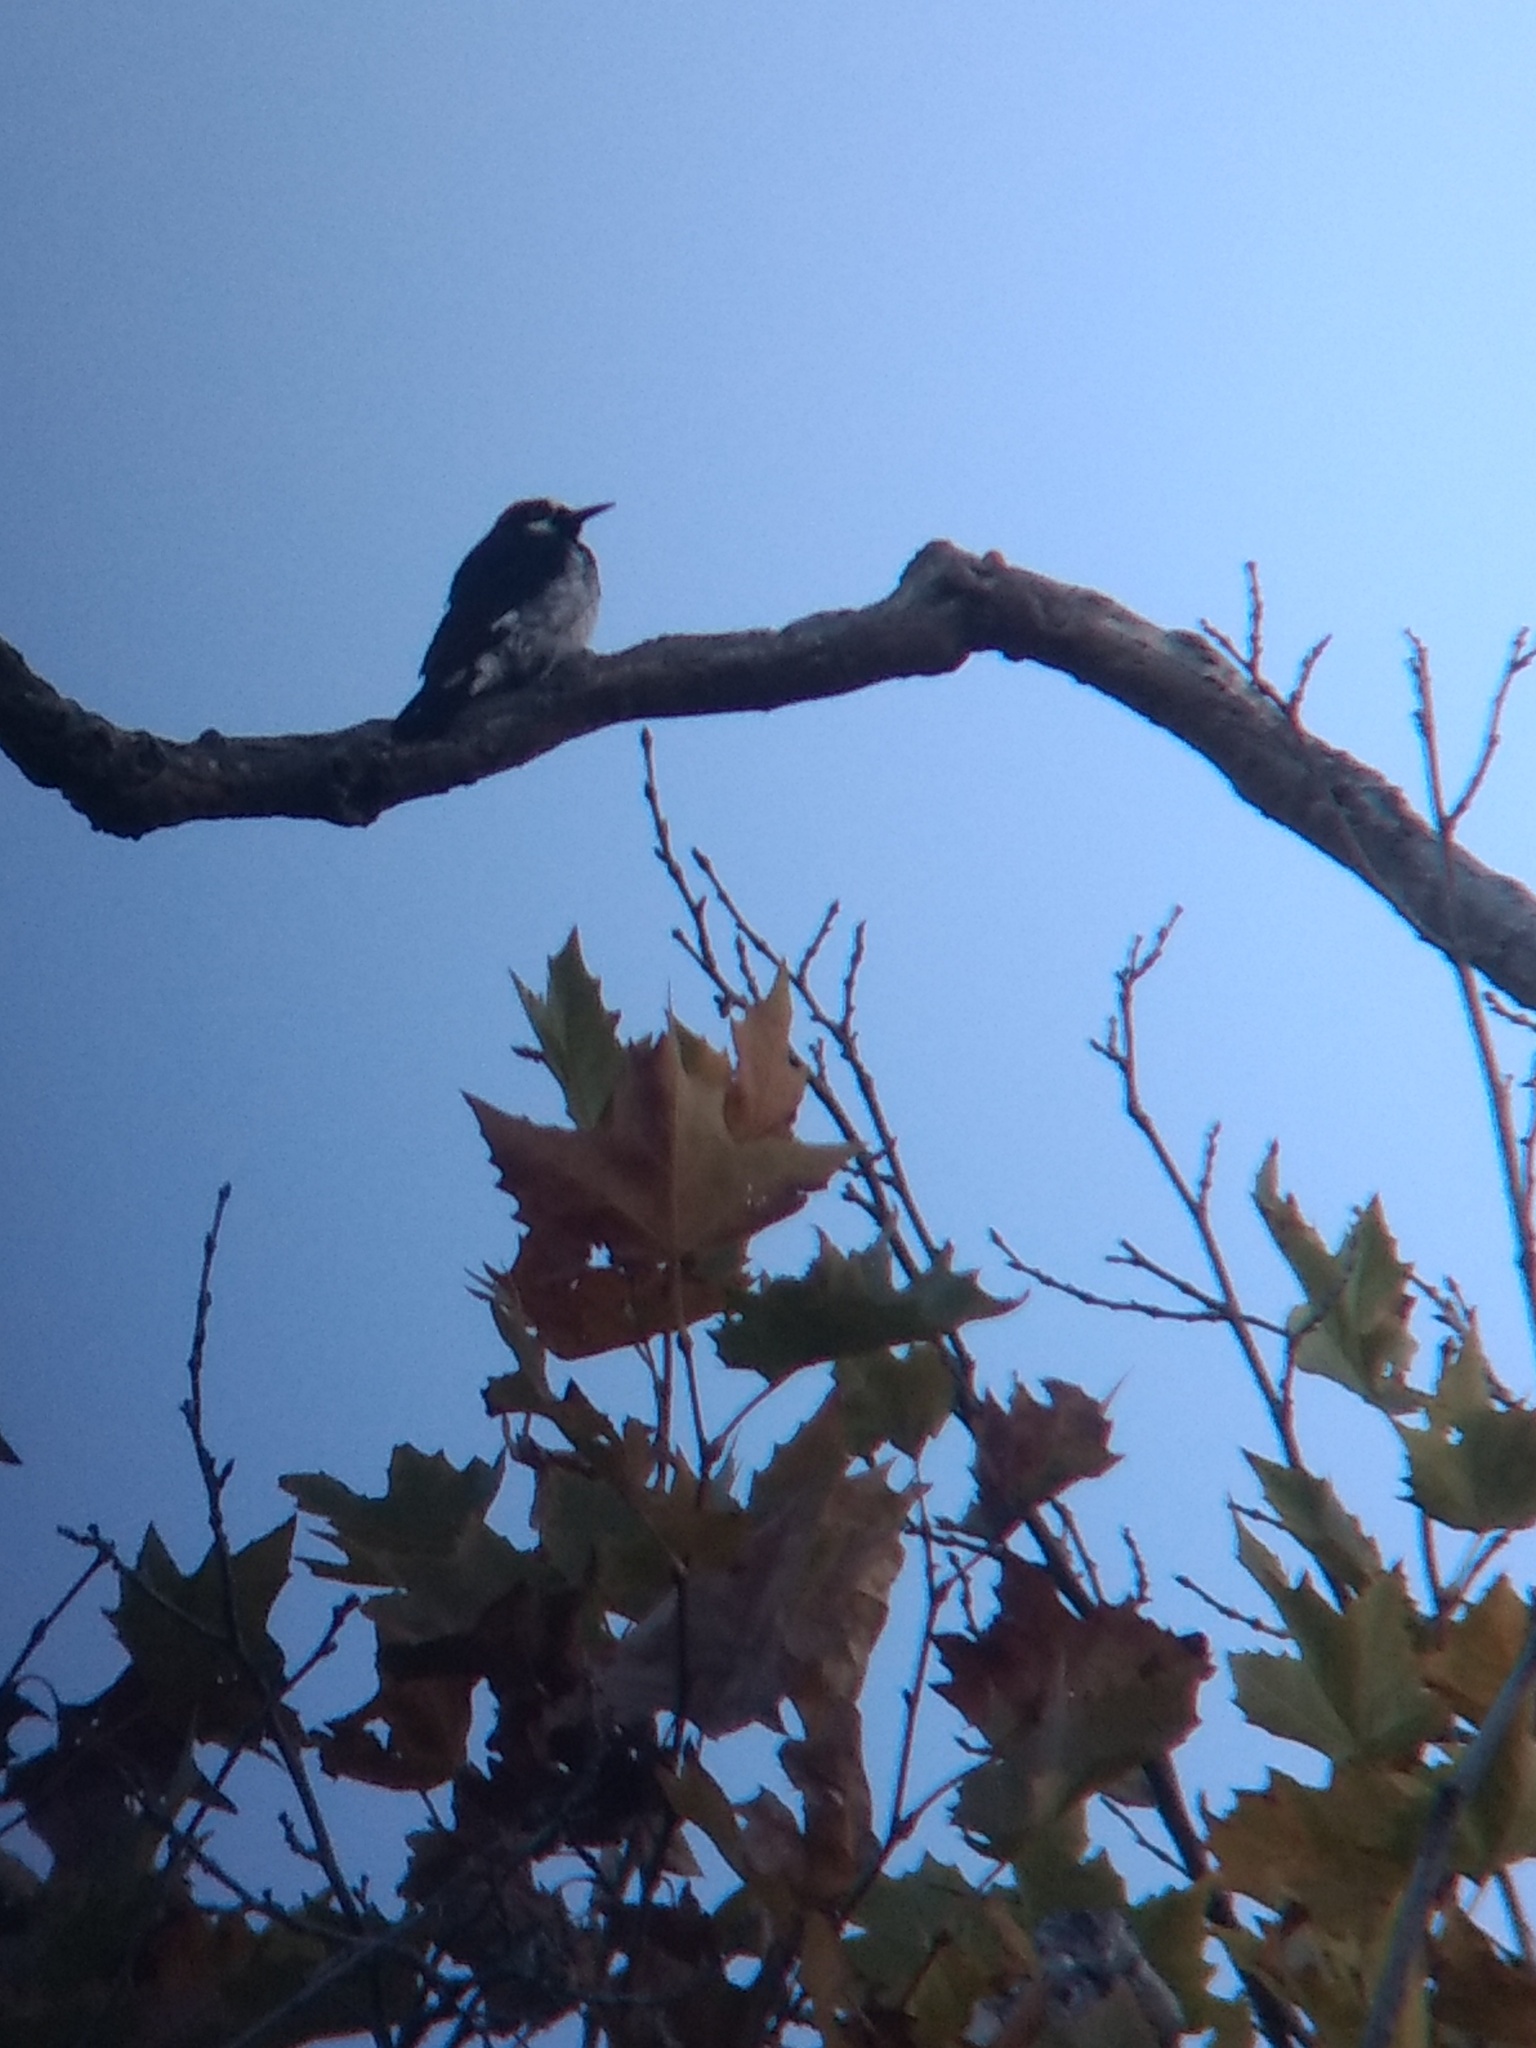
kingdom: Animalia
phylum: Chordata
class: Aves
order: Piciformes
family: Picidae
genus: Melanerpes
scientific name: Melanerpes formicivorus
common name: Acorn woodpecker
